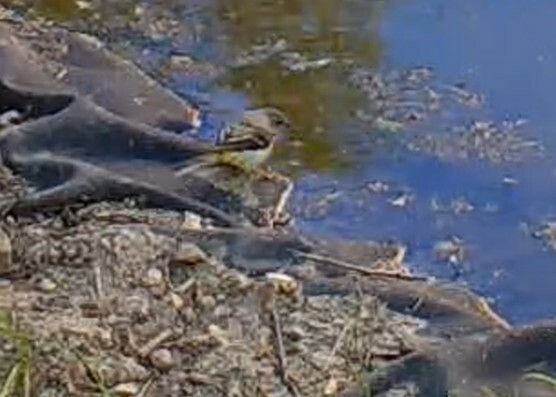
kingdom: Animalia
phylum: Chordata
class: Aves
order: Passeriformes
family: Motacillidae
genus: Motacilla
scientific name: Motacilla cinerea
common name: Grey wagtail
